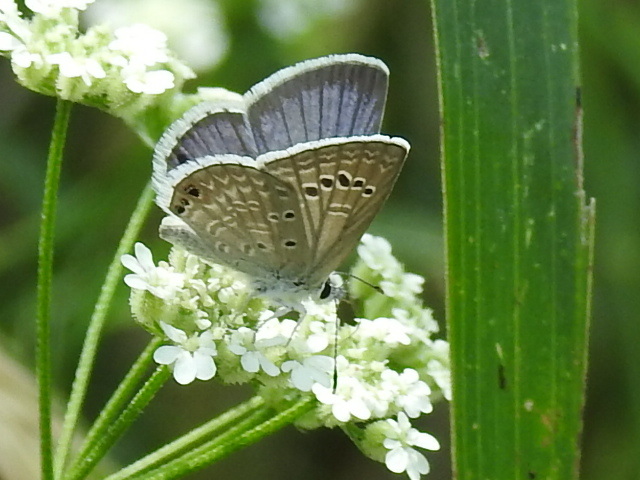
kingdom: Animalia
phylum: Arthropoda
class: Insecta
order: Lepidoptera
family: Lycaenidae
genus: Echinargus
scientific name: Echinargus isola
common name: Reakirt's blue
